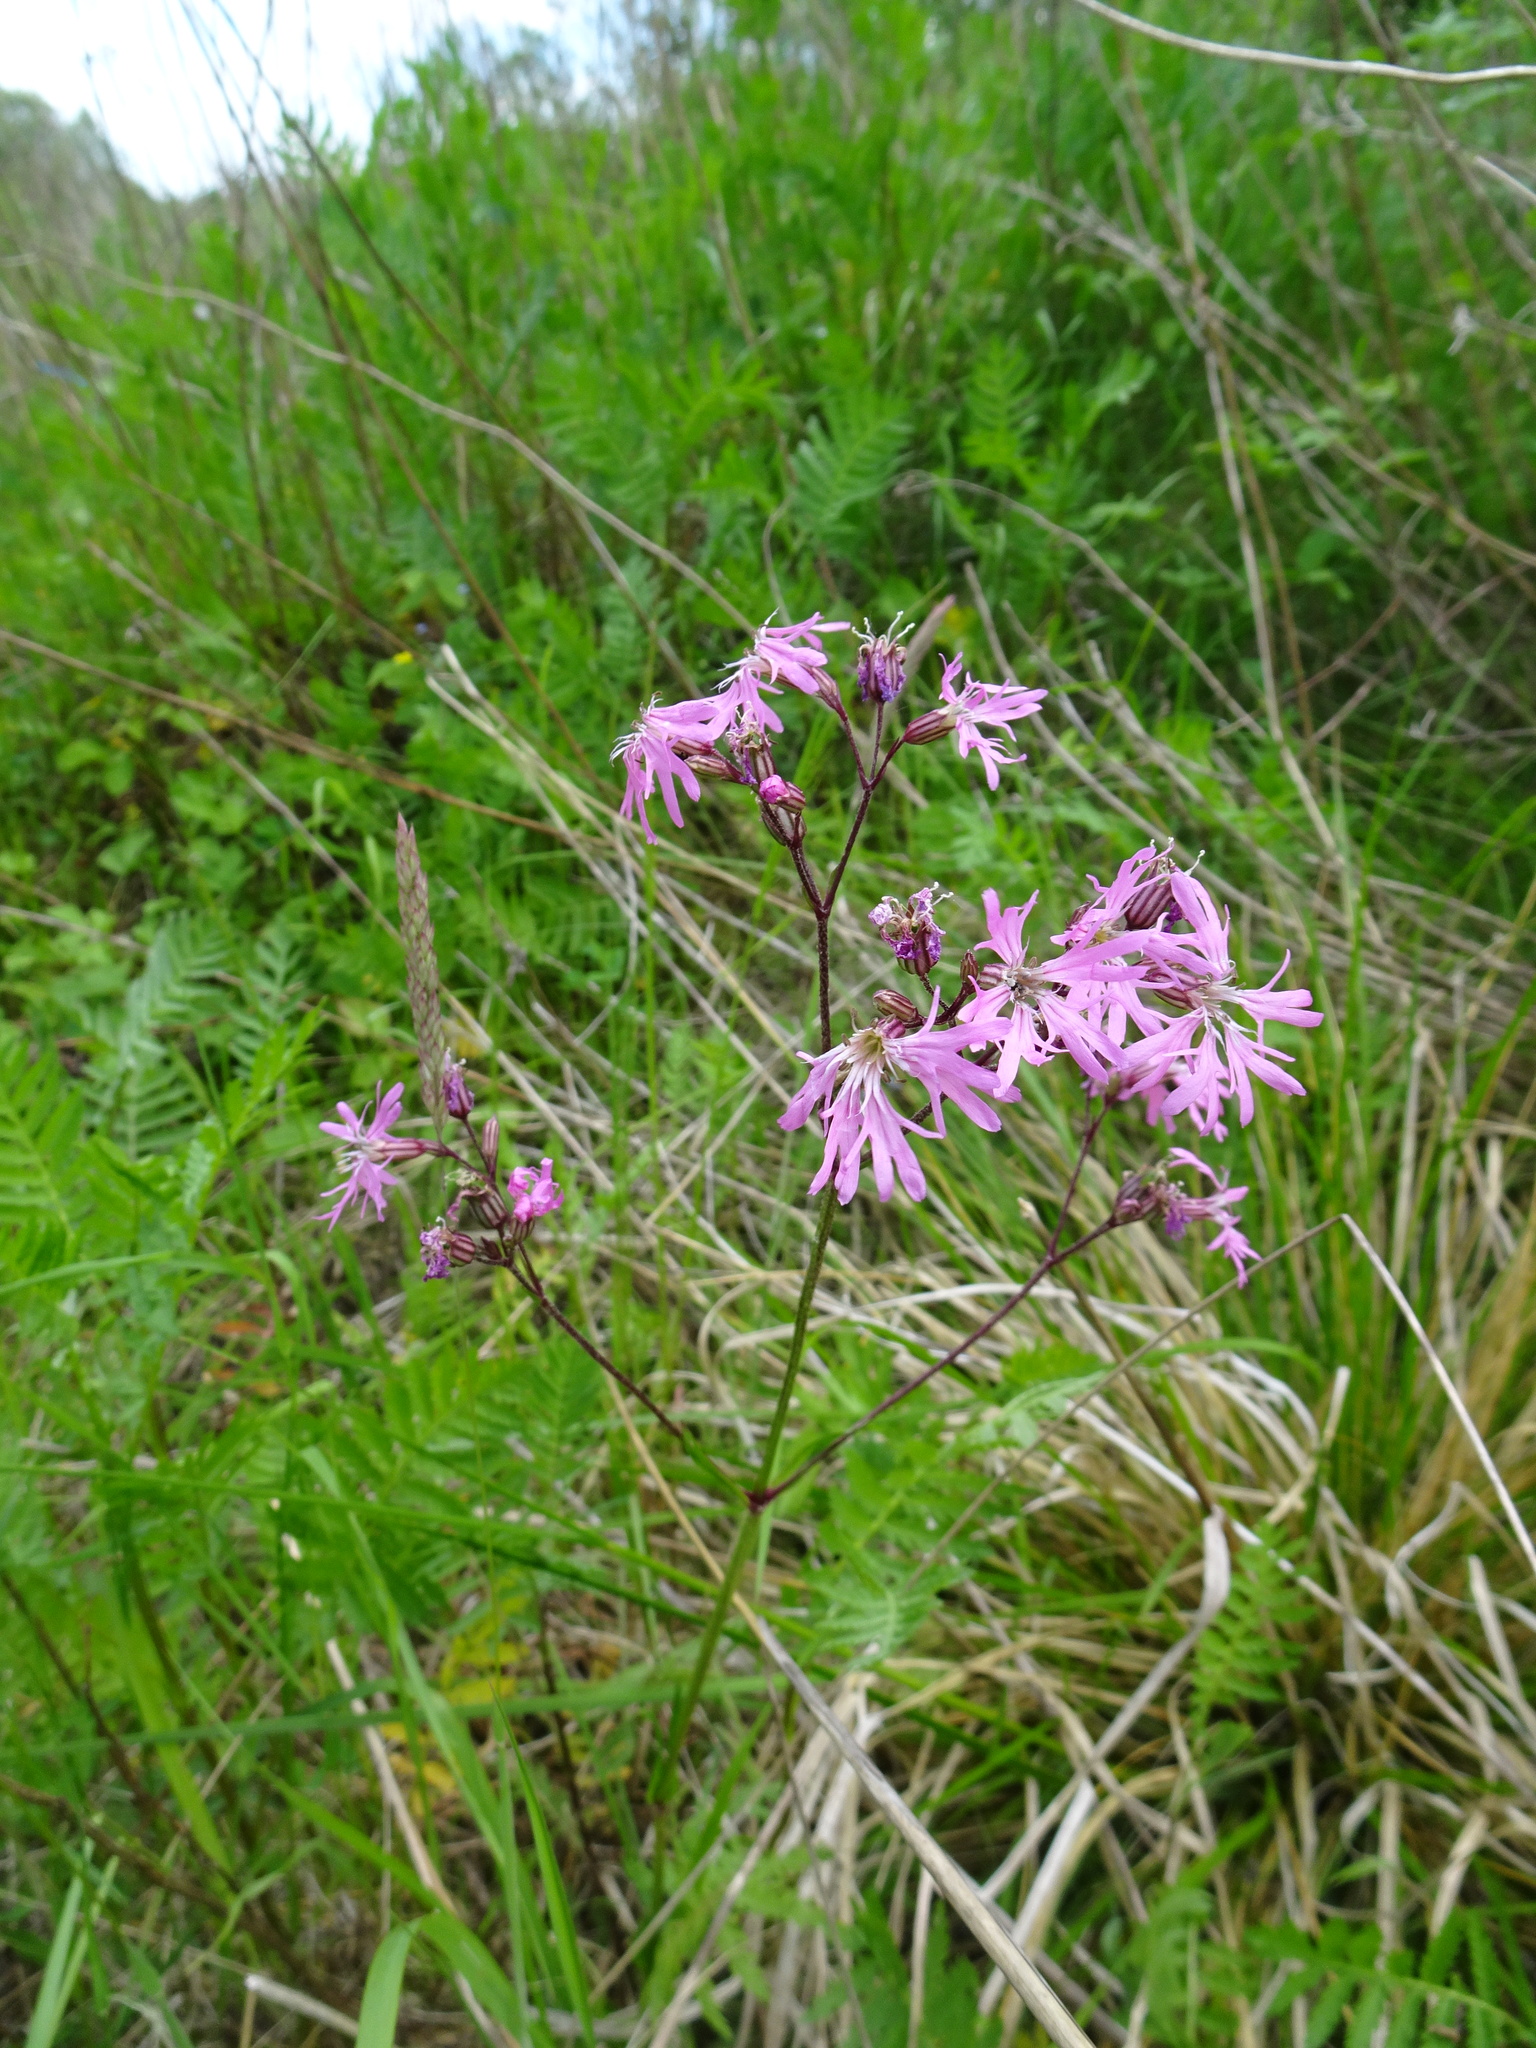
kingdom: Plantae
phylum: Tracheophyta
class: Magnoliopsida
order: Caryophyllales
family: Caryophyllaceae
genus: Silene
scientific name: Silene flos-cuculi
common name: Ragged-robin
